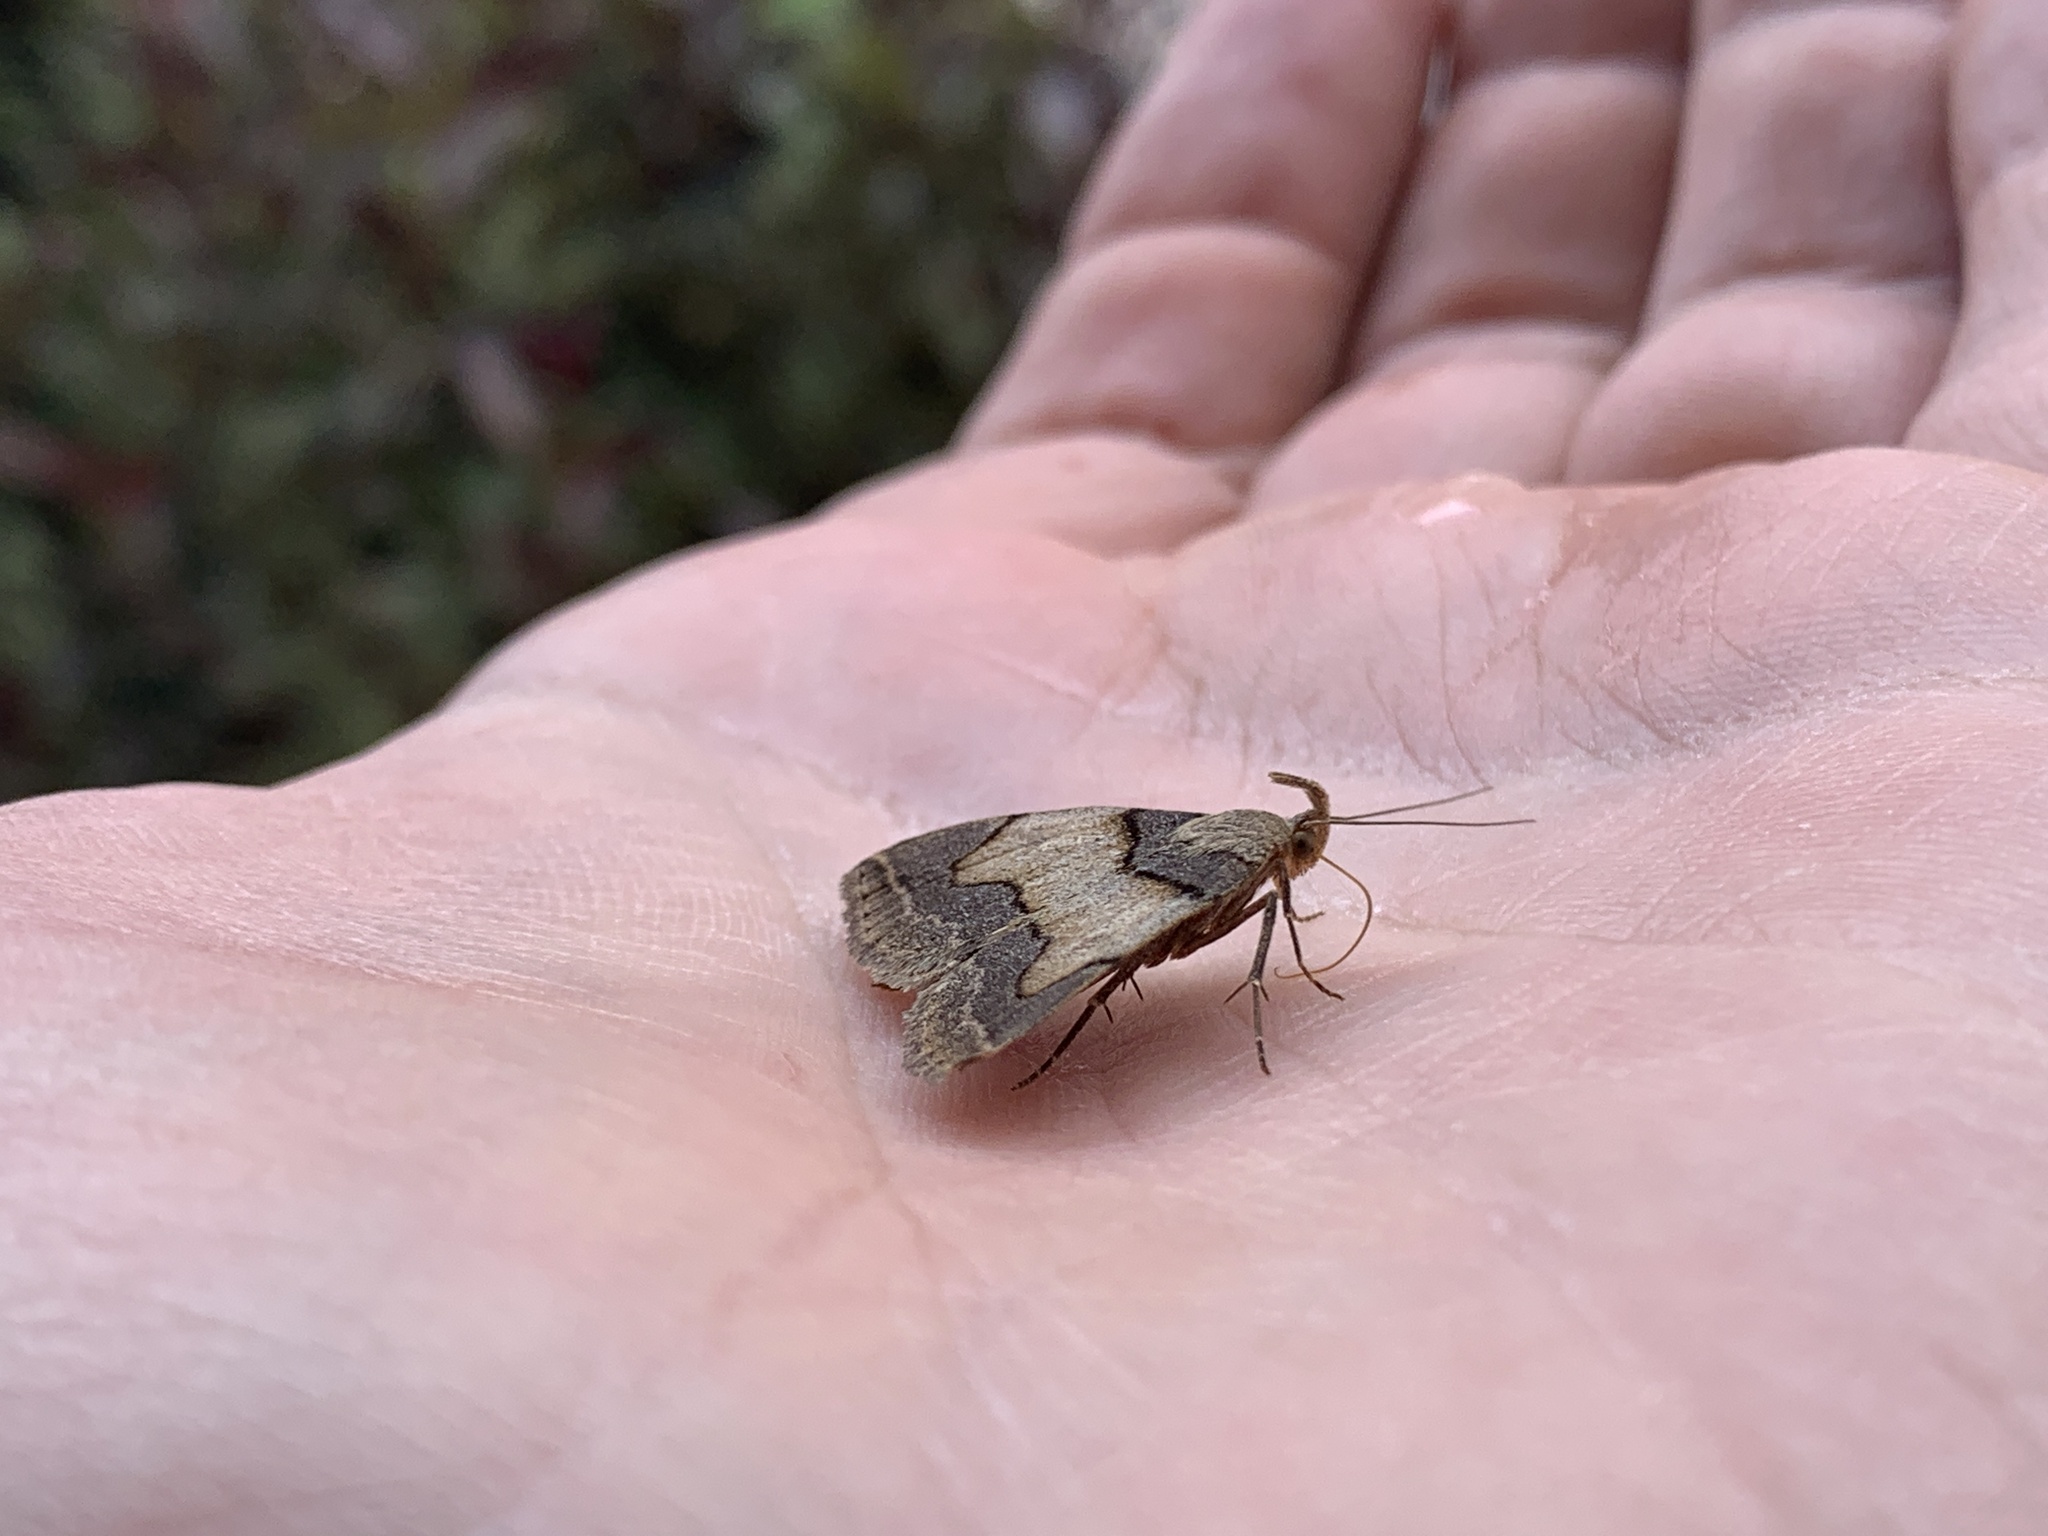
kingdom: Animalia
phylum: Arthropoda
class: Insecta
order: Lepidoptera
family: Erebidae
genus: Zanclognatha
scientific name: Zanclognatha laevigata
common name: Variable fan-foot
